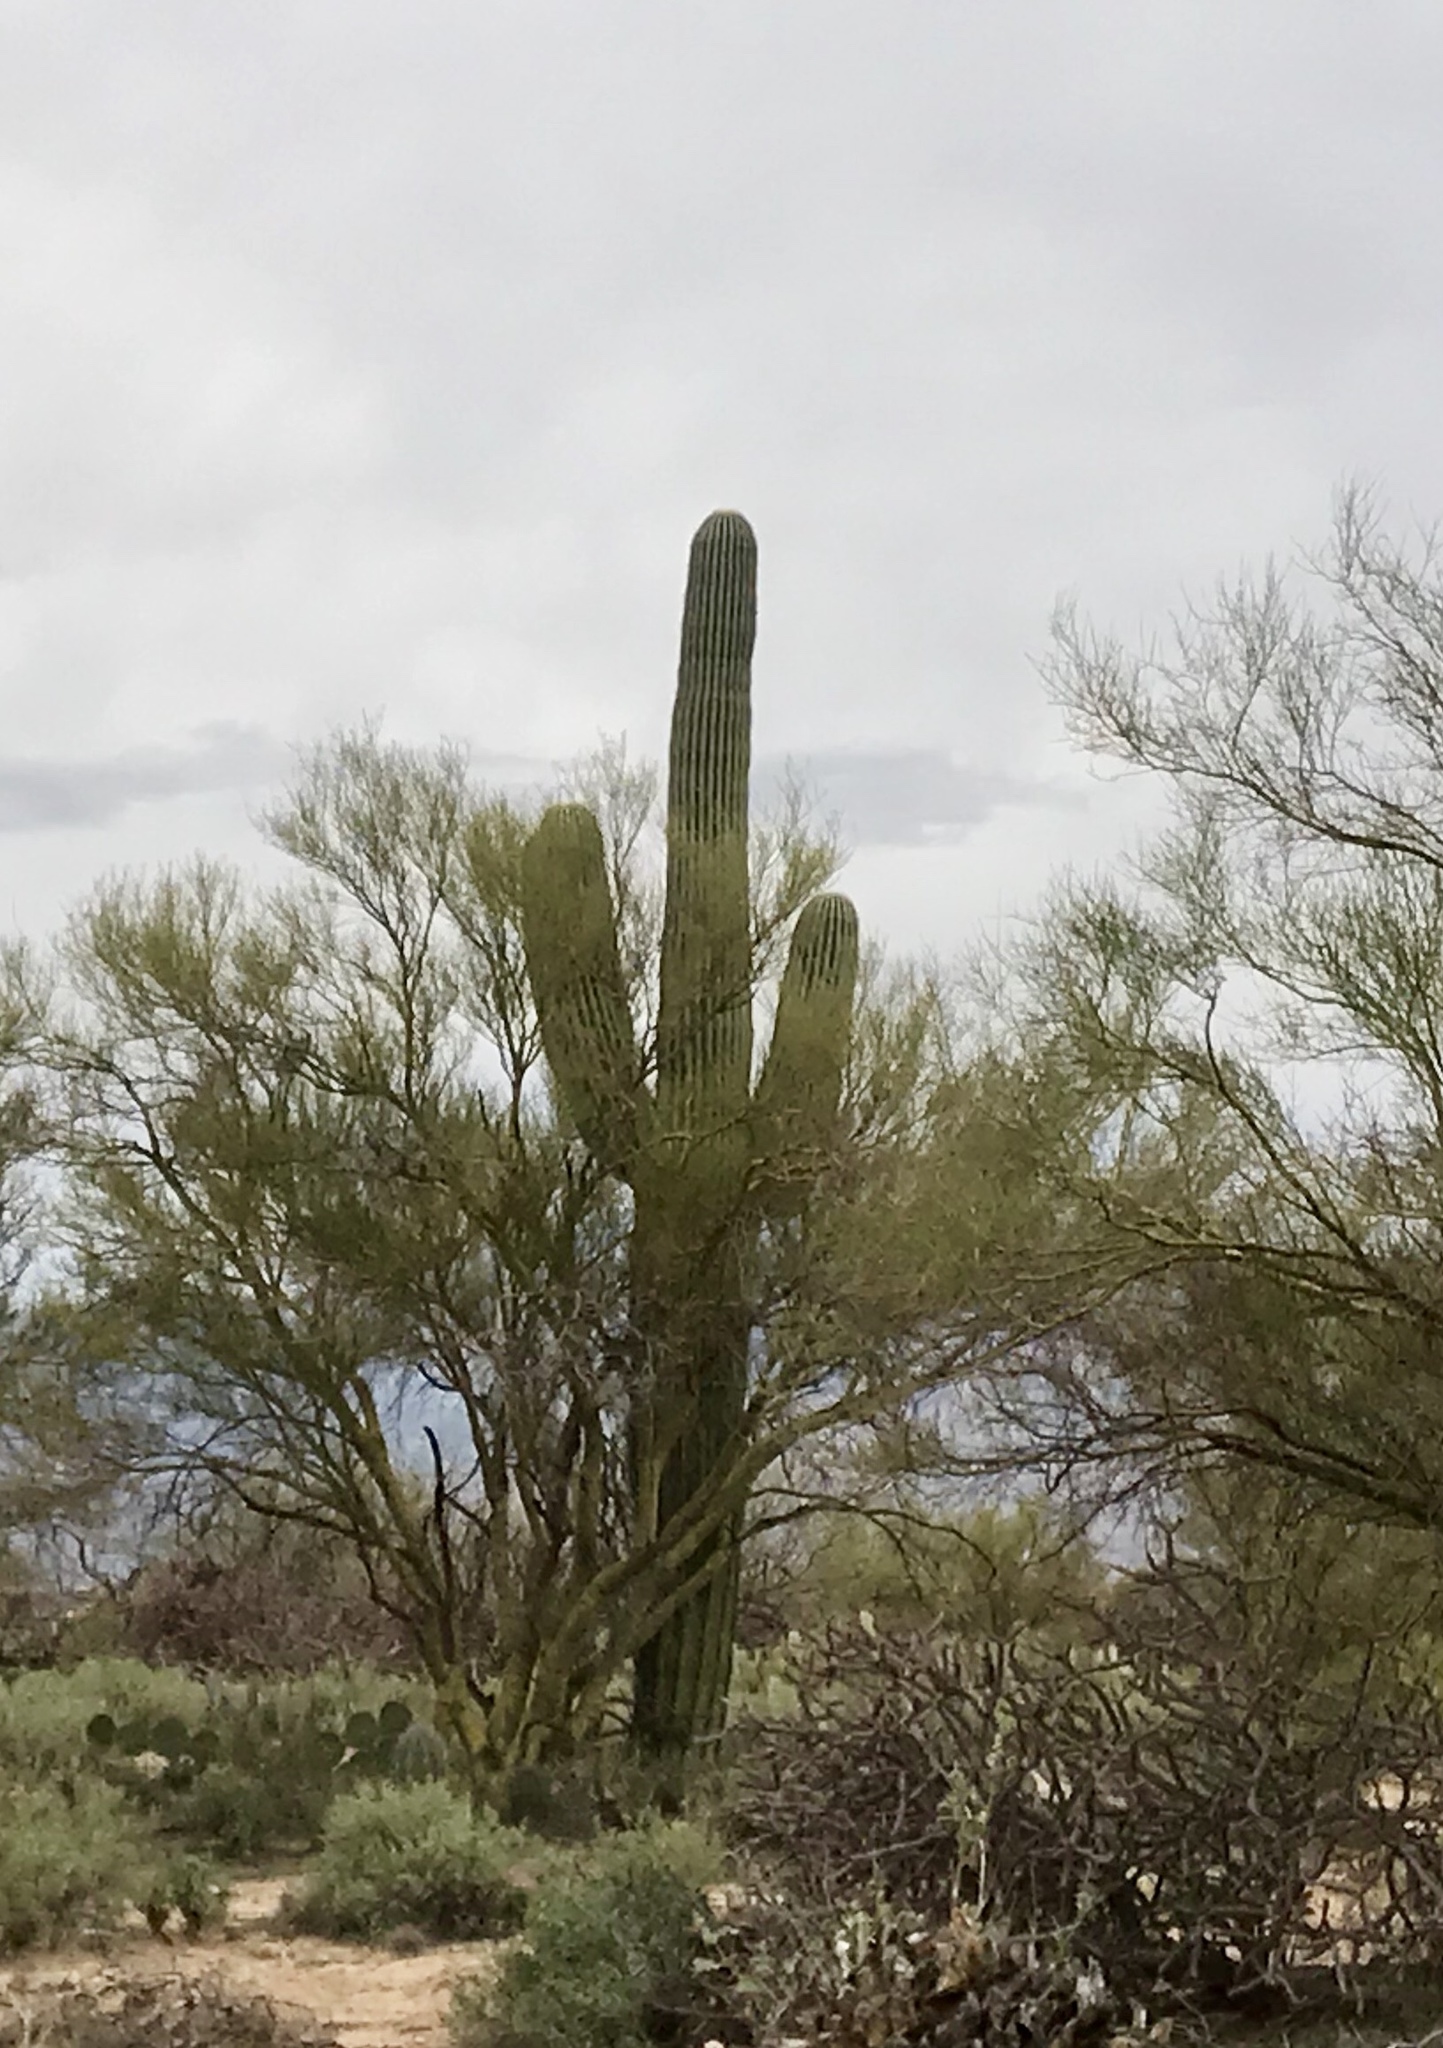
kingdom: Plantae
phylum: Tracheophyta
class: Magnoliopsida
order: Caryophyllales
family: Cactaceae
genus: Carnegiea
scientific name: Carnegiea gigantea
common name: Saguaro
